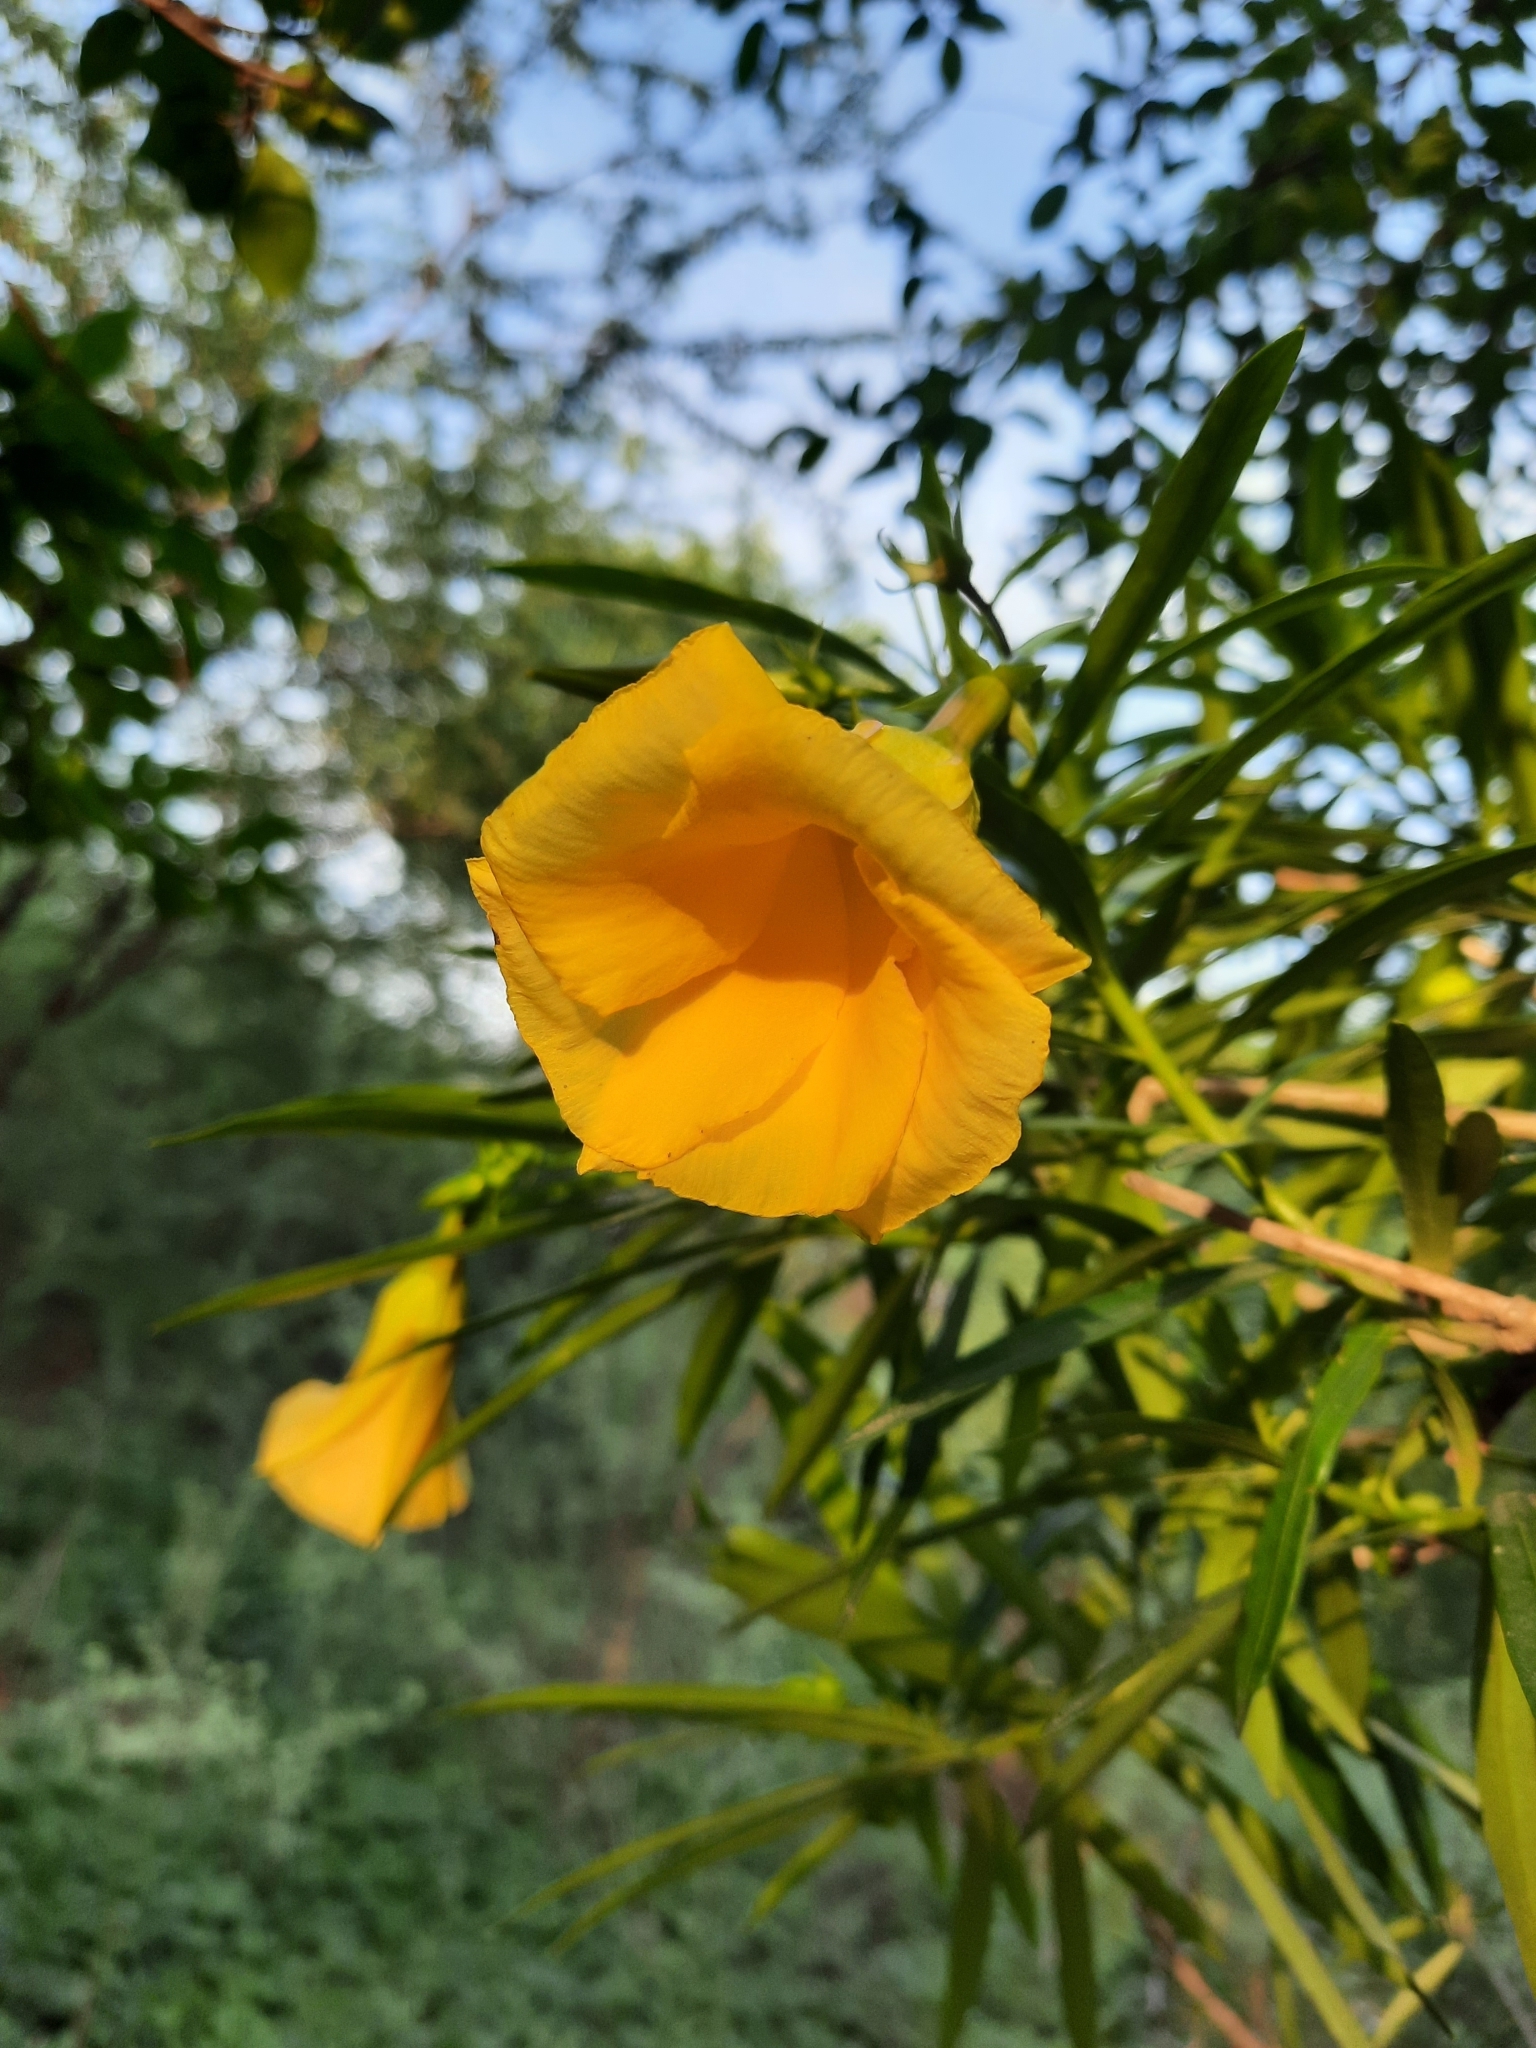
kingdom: Plantae
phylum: Tracheophyta
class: Magnoliopsida
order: Gentianales
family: Apocynaceae
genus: Cascabela
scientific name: Cascabela thevetia
